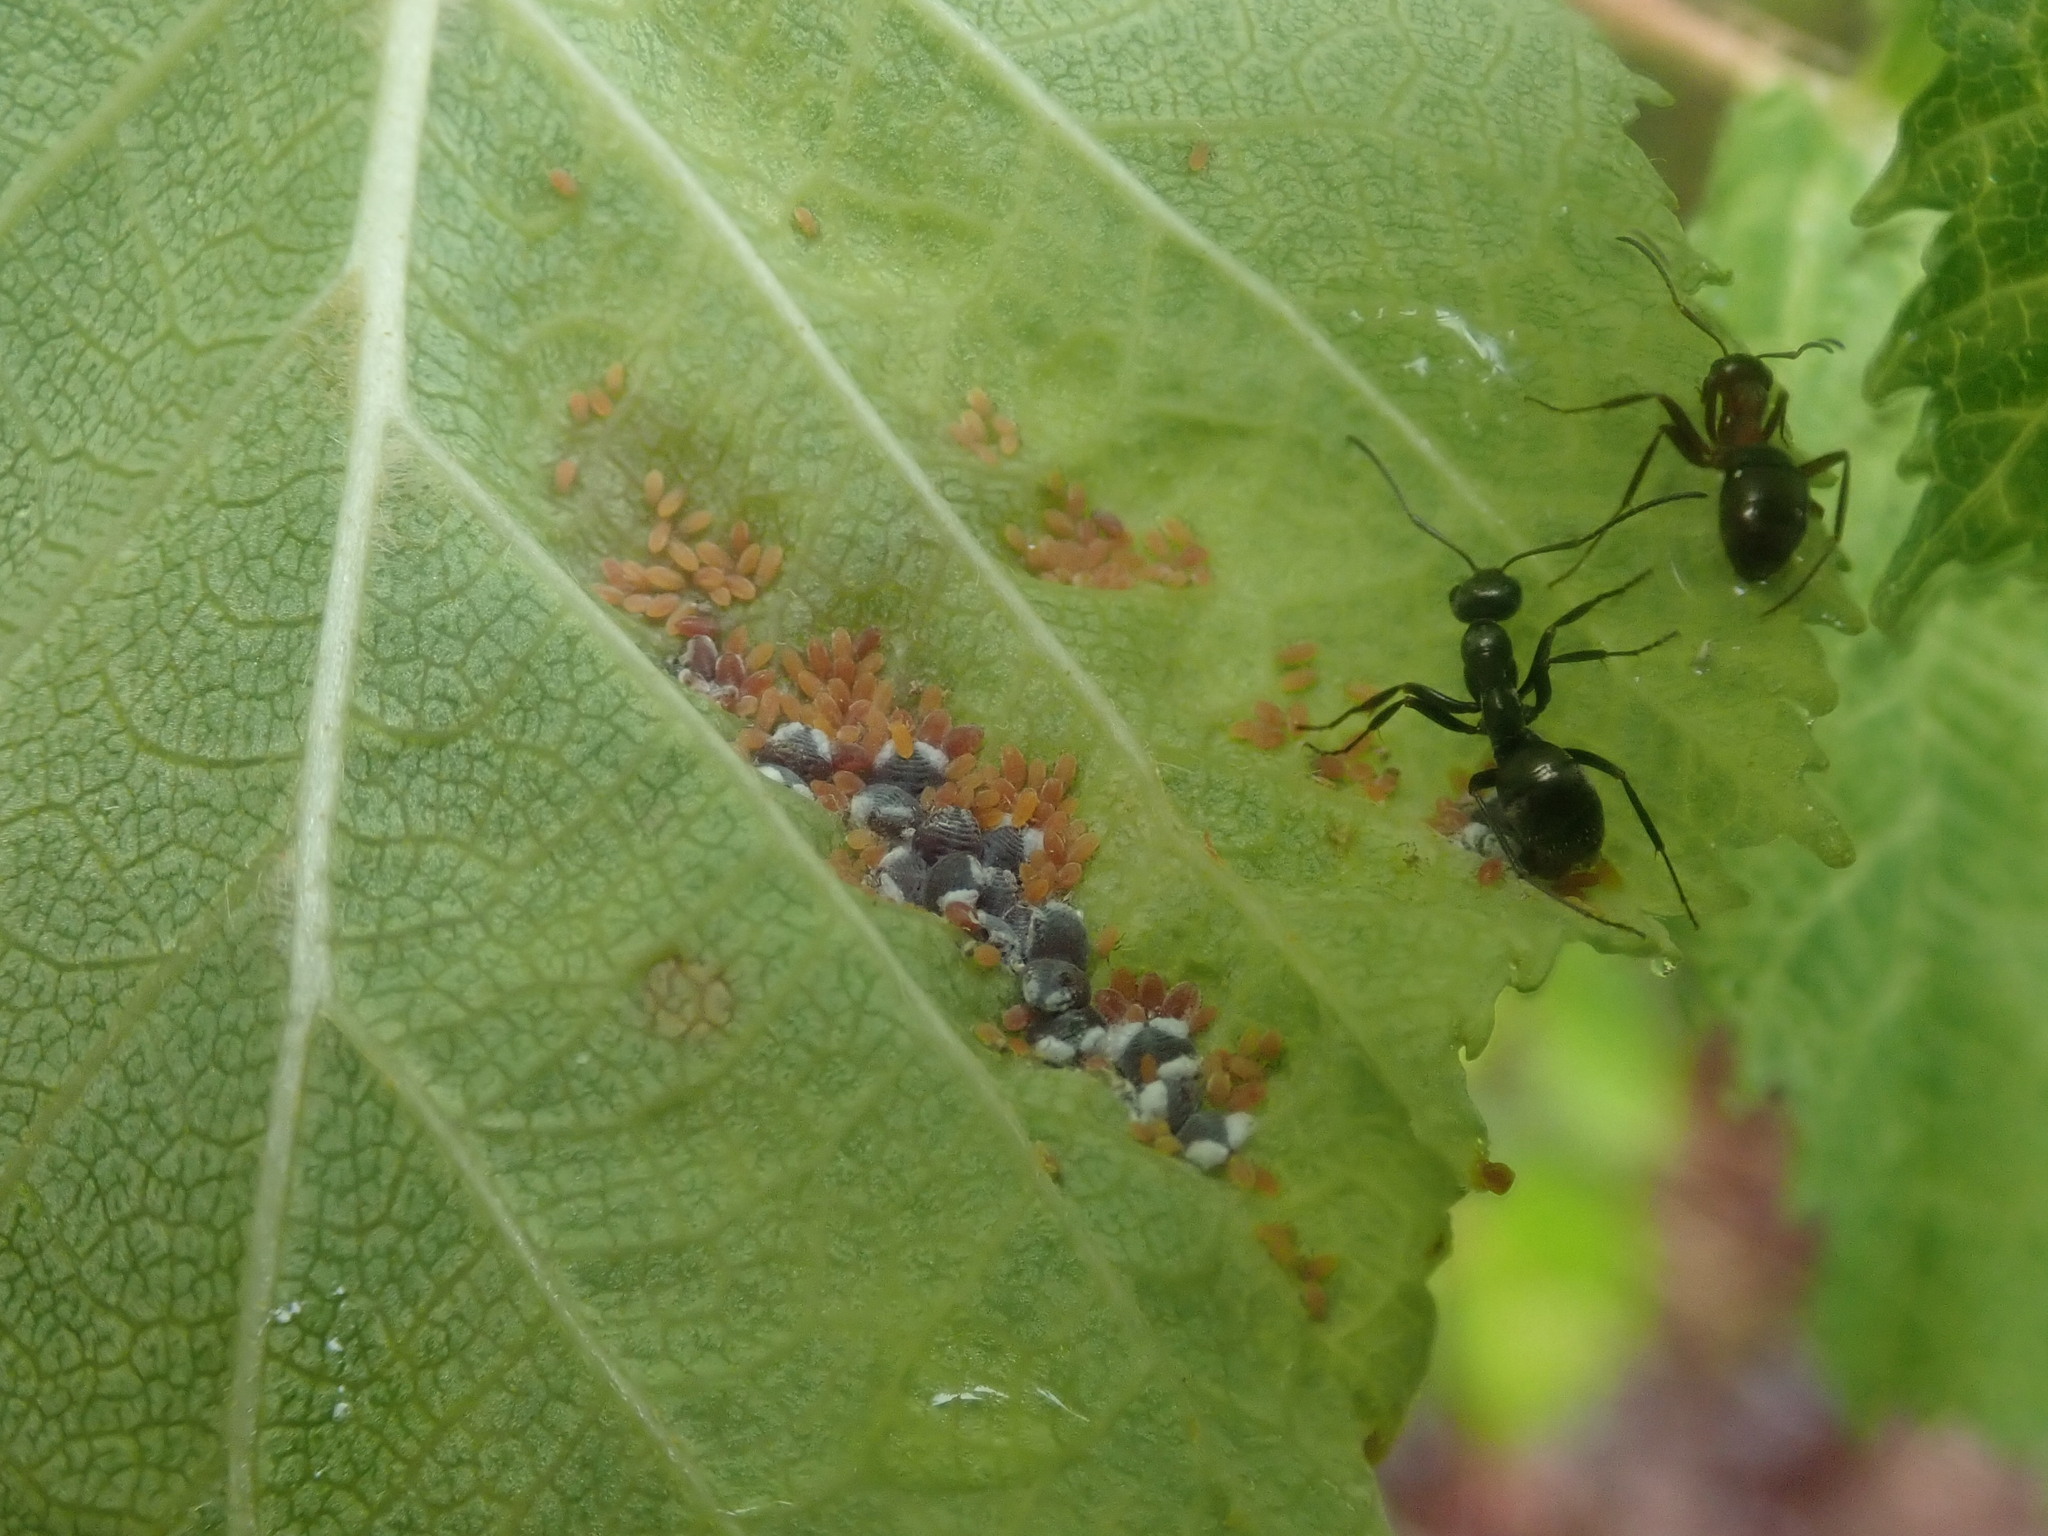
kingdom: Animalia
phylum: Arthropoda
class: Insecta
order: Hemiptera
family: Aphididae
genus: Hamamelistes
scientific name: Hamamelistes spinosus
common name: Witch hazel gall aphid
